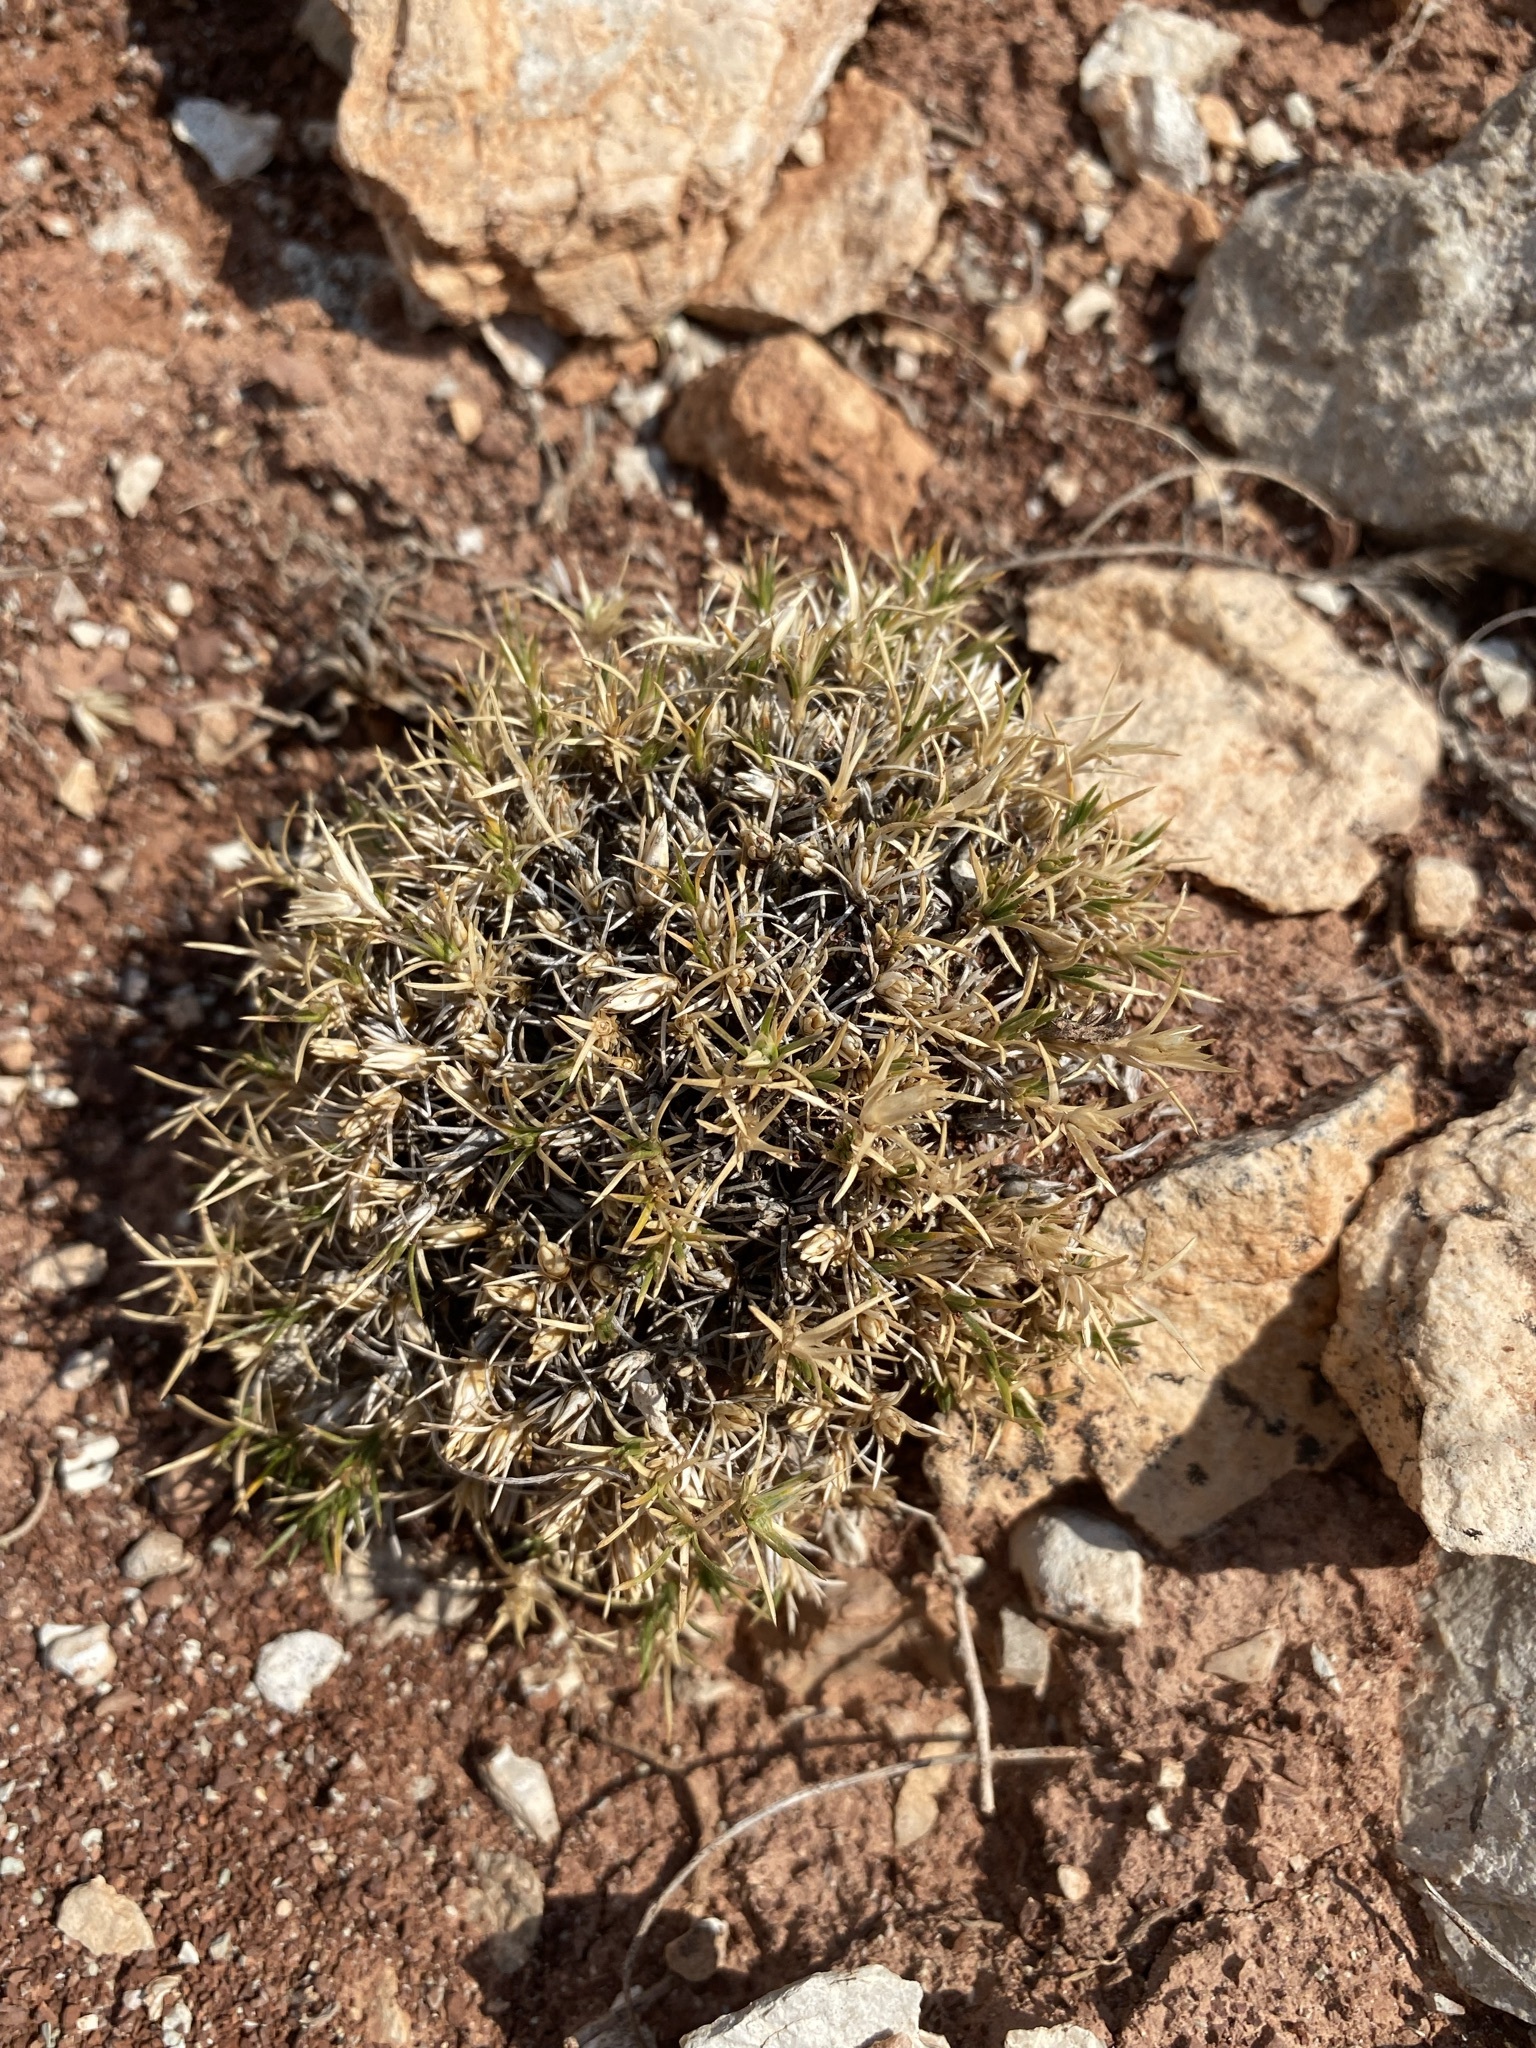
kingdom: Plantae
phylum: Tracheophyta
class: Magnoliopsida
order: Ericales
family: Polemoniaceae
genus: Linanthus
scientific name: Linanthus caespitosus
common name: Mat prickly phlox
